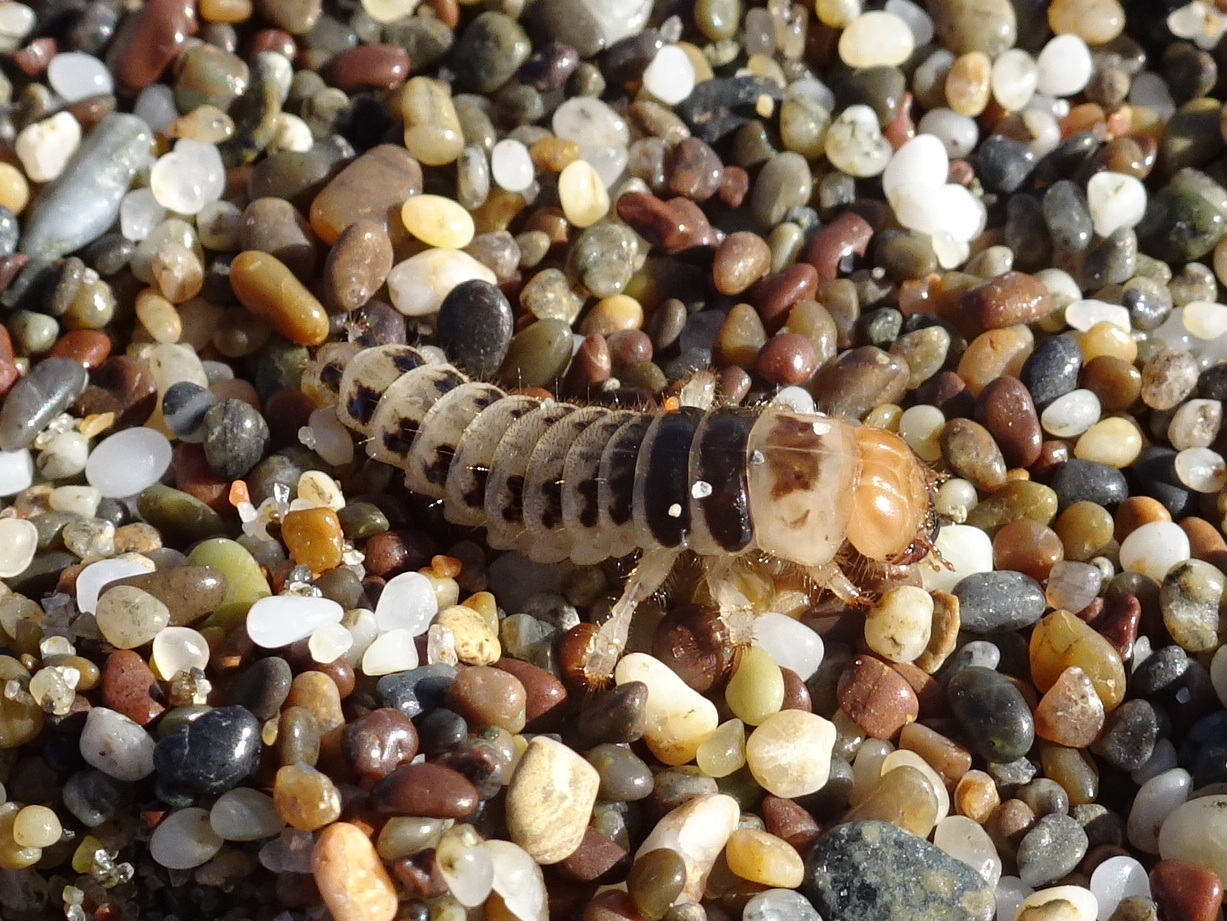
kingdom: Animalia
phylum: Arthropoda
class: Insecta
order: Coleoptera
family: Staphylinidae
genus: Thinopinus
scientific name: Thinopinus pictus
